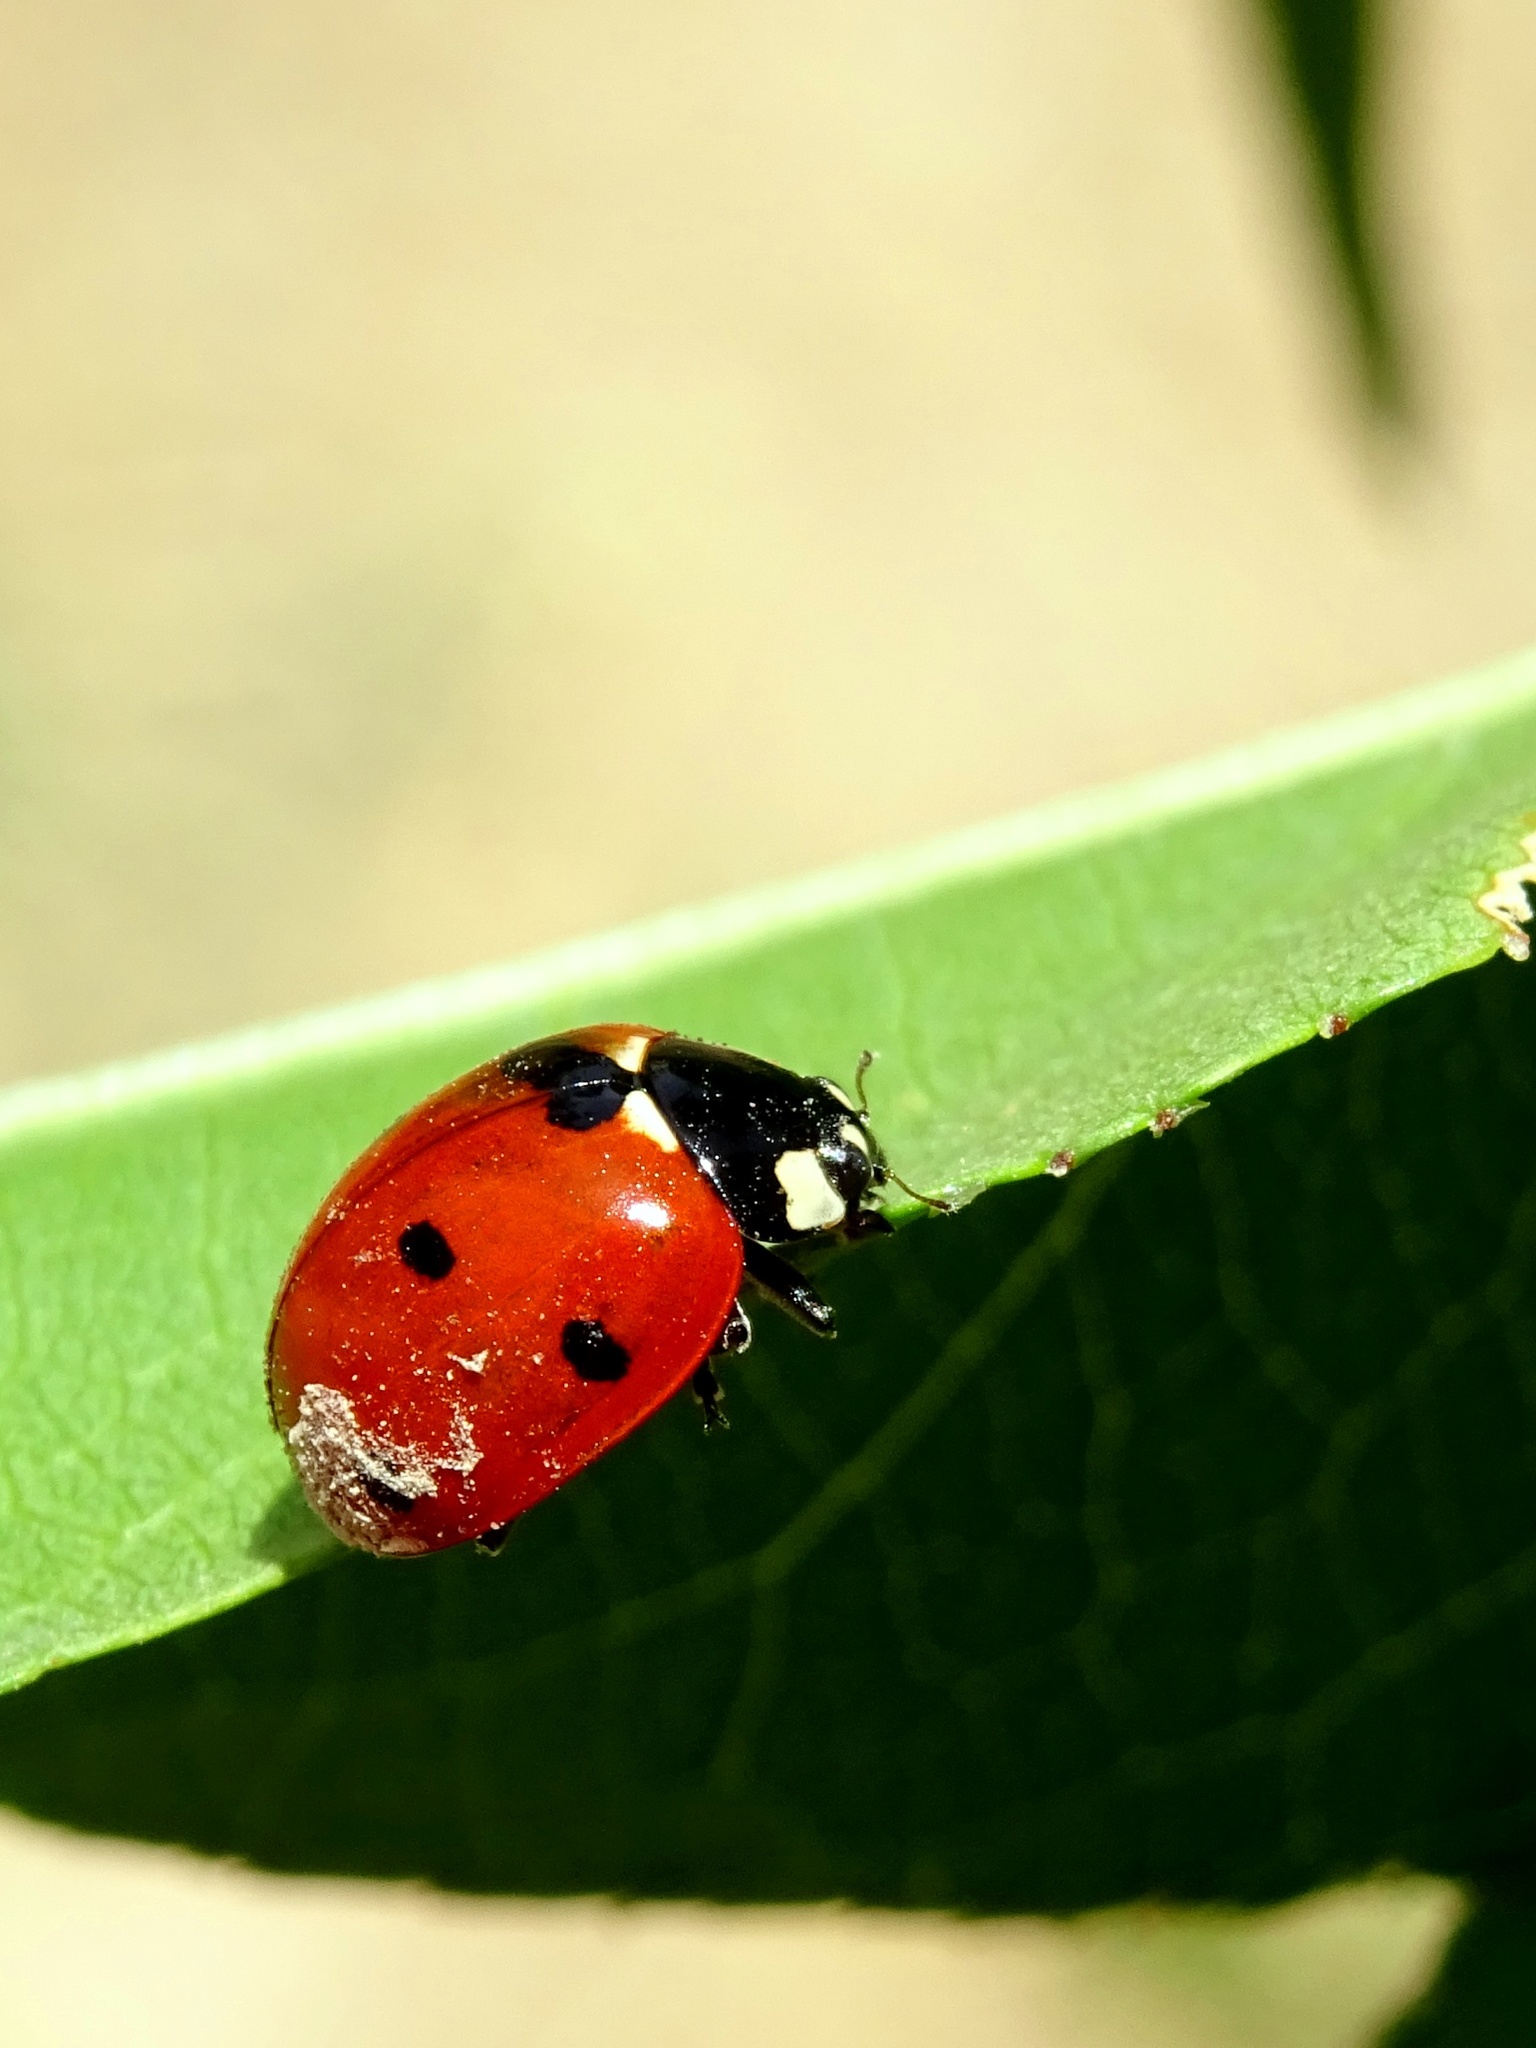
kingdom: Animalia
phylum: Arthropoda
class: Insecta
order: Coleoptera
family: Coccinellidae
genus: Coccinella
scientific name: Coccinella septempunctata
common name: Sevenspotted lady beetle
